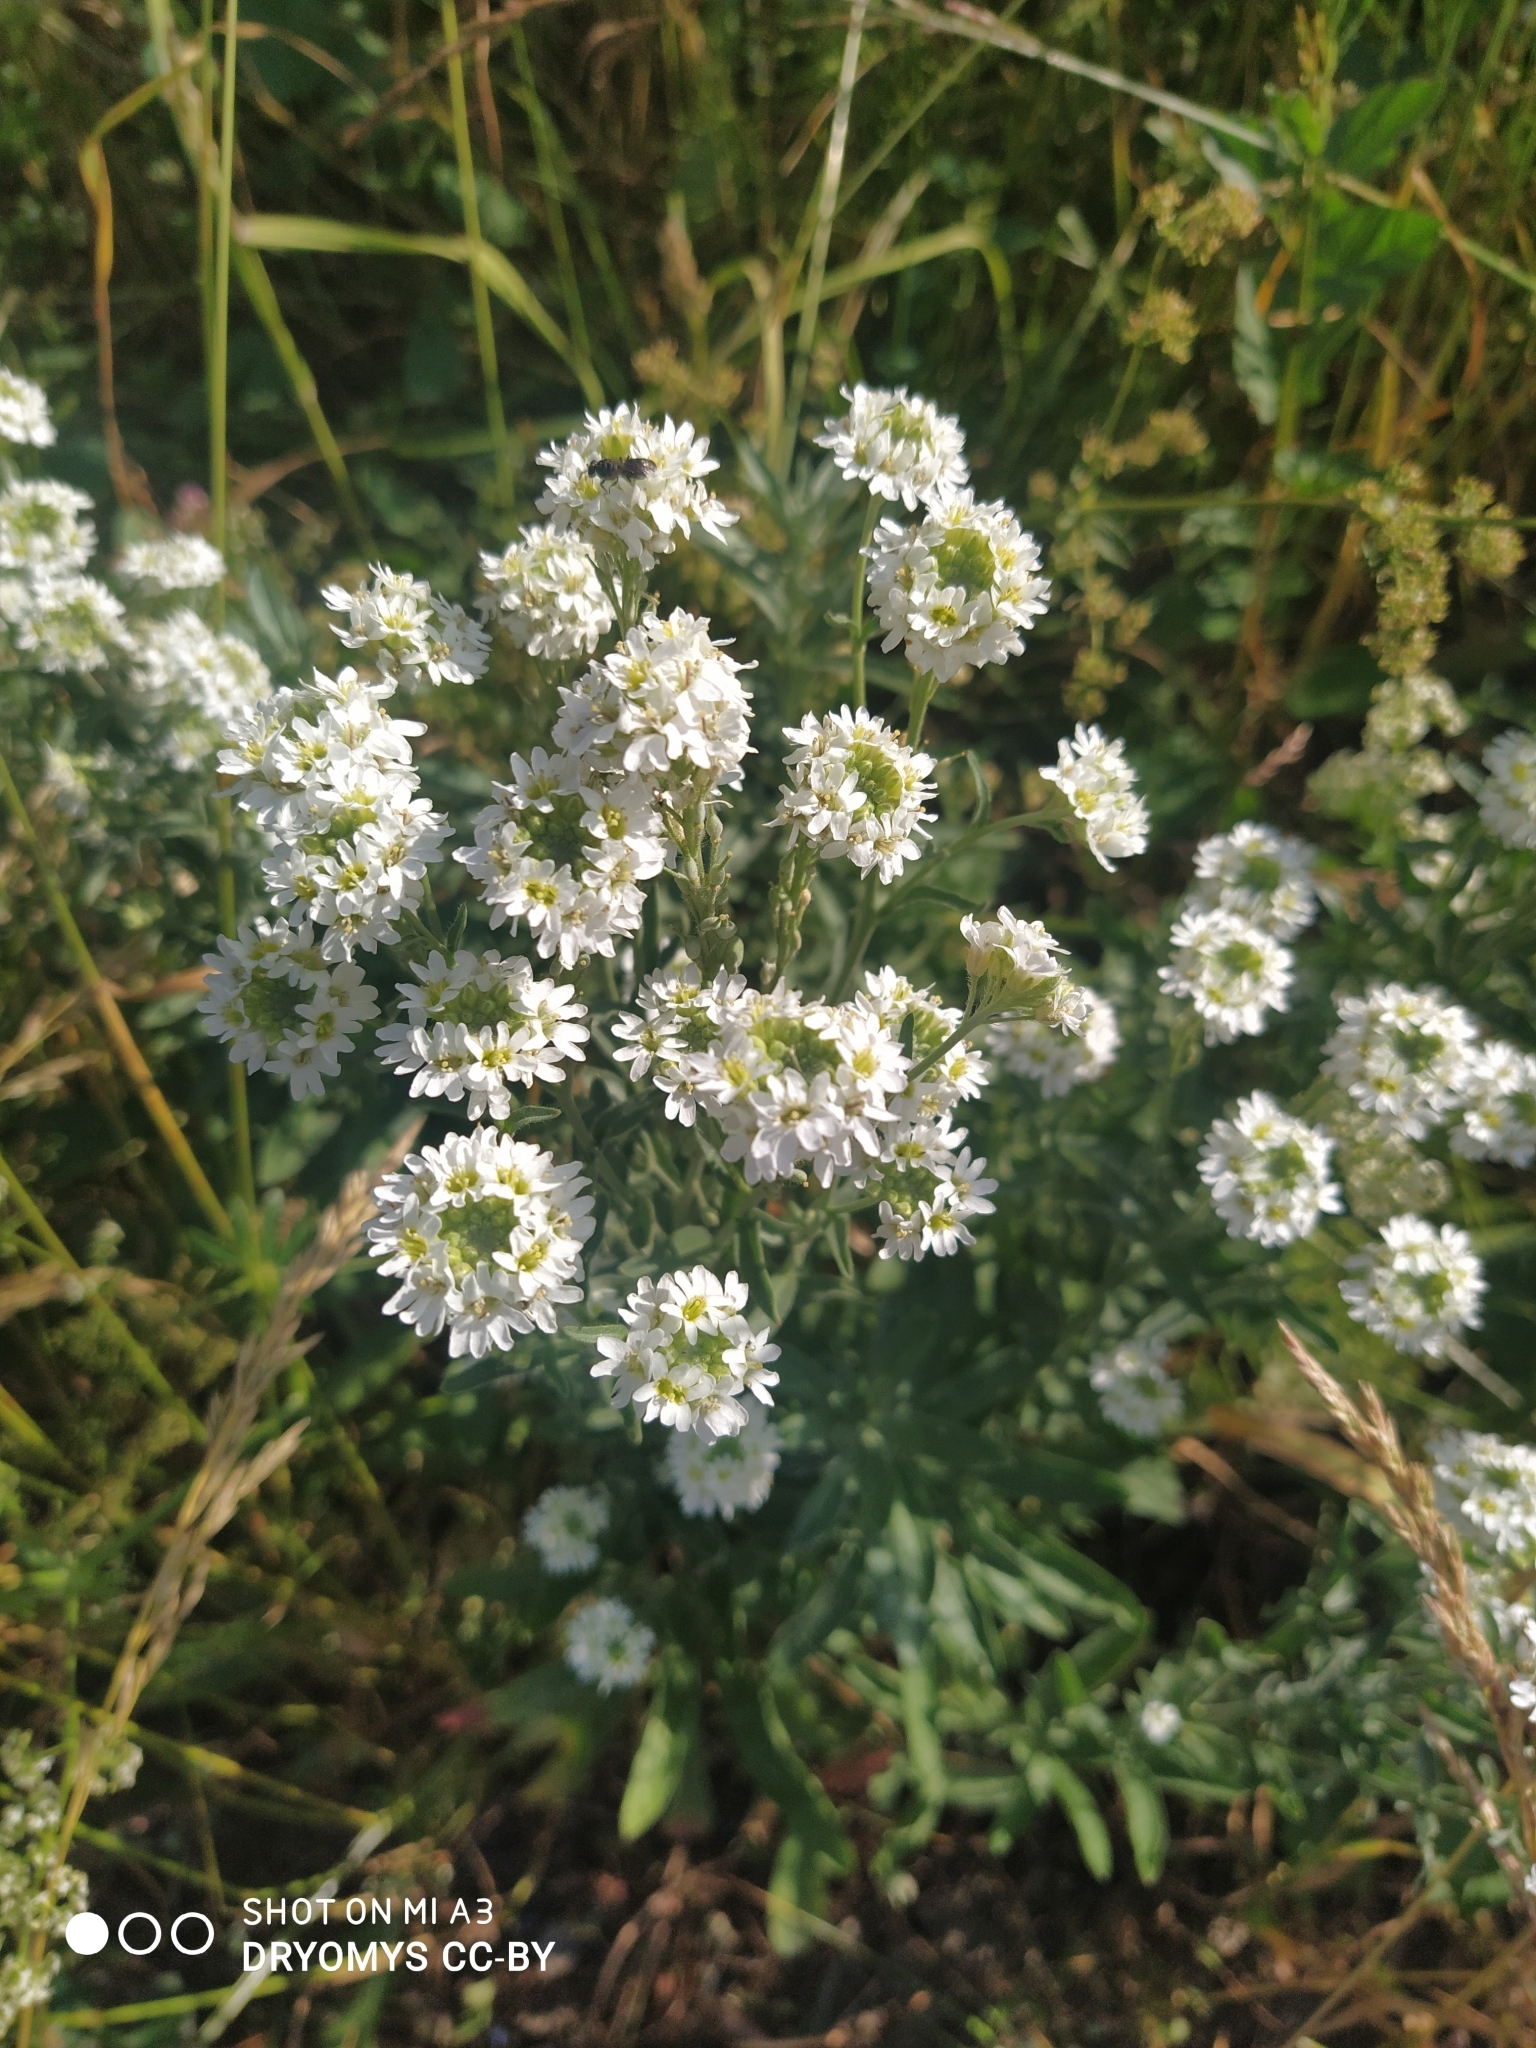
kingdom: Plantae
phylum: Tracheophyta
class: Magnoliopsida
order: Brassicales
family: Brassicaceae
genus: Berteroa
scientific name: Berteroa incana
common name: Hoary alison
